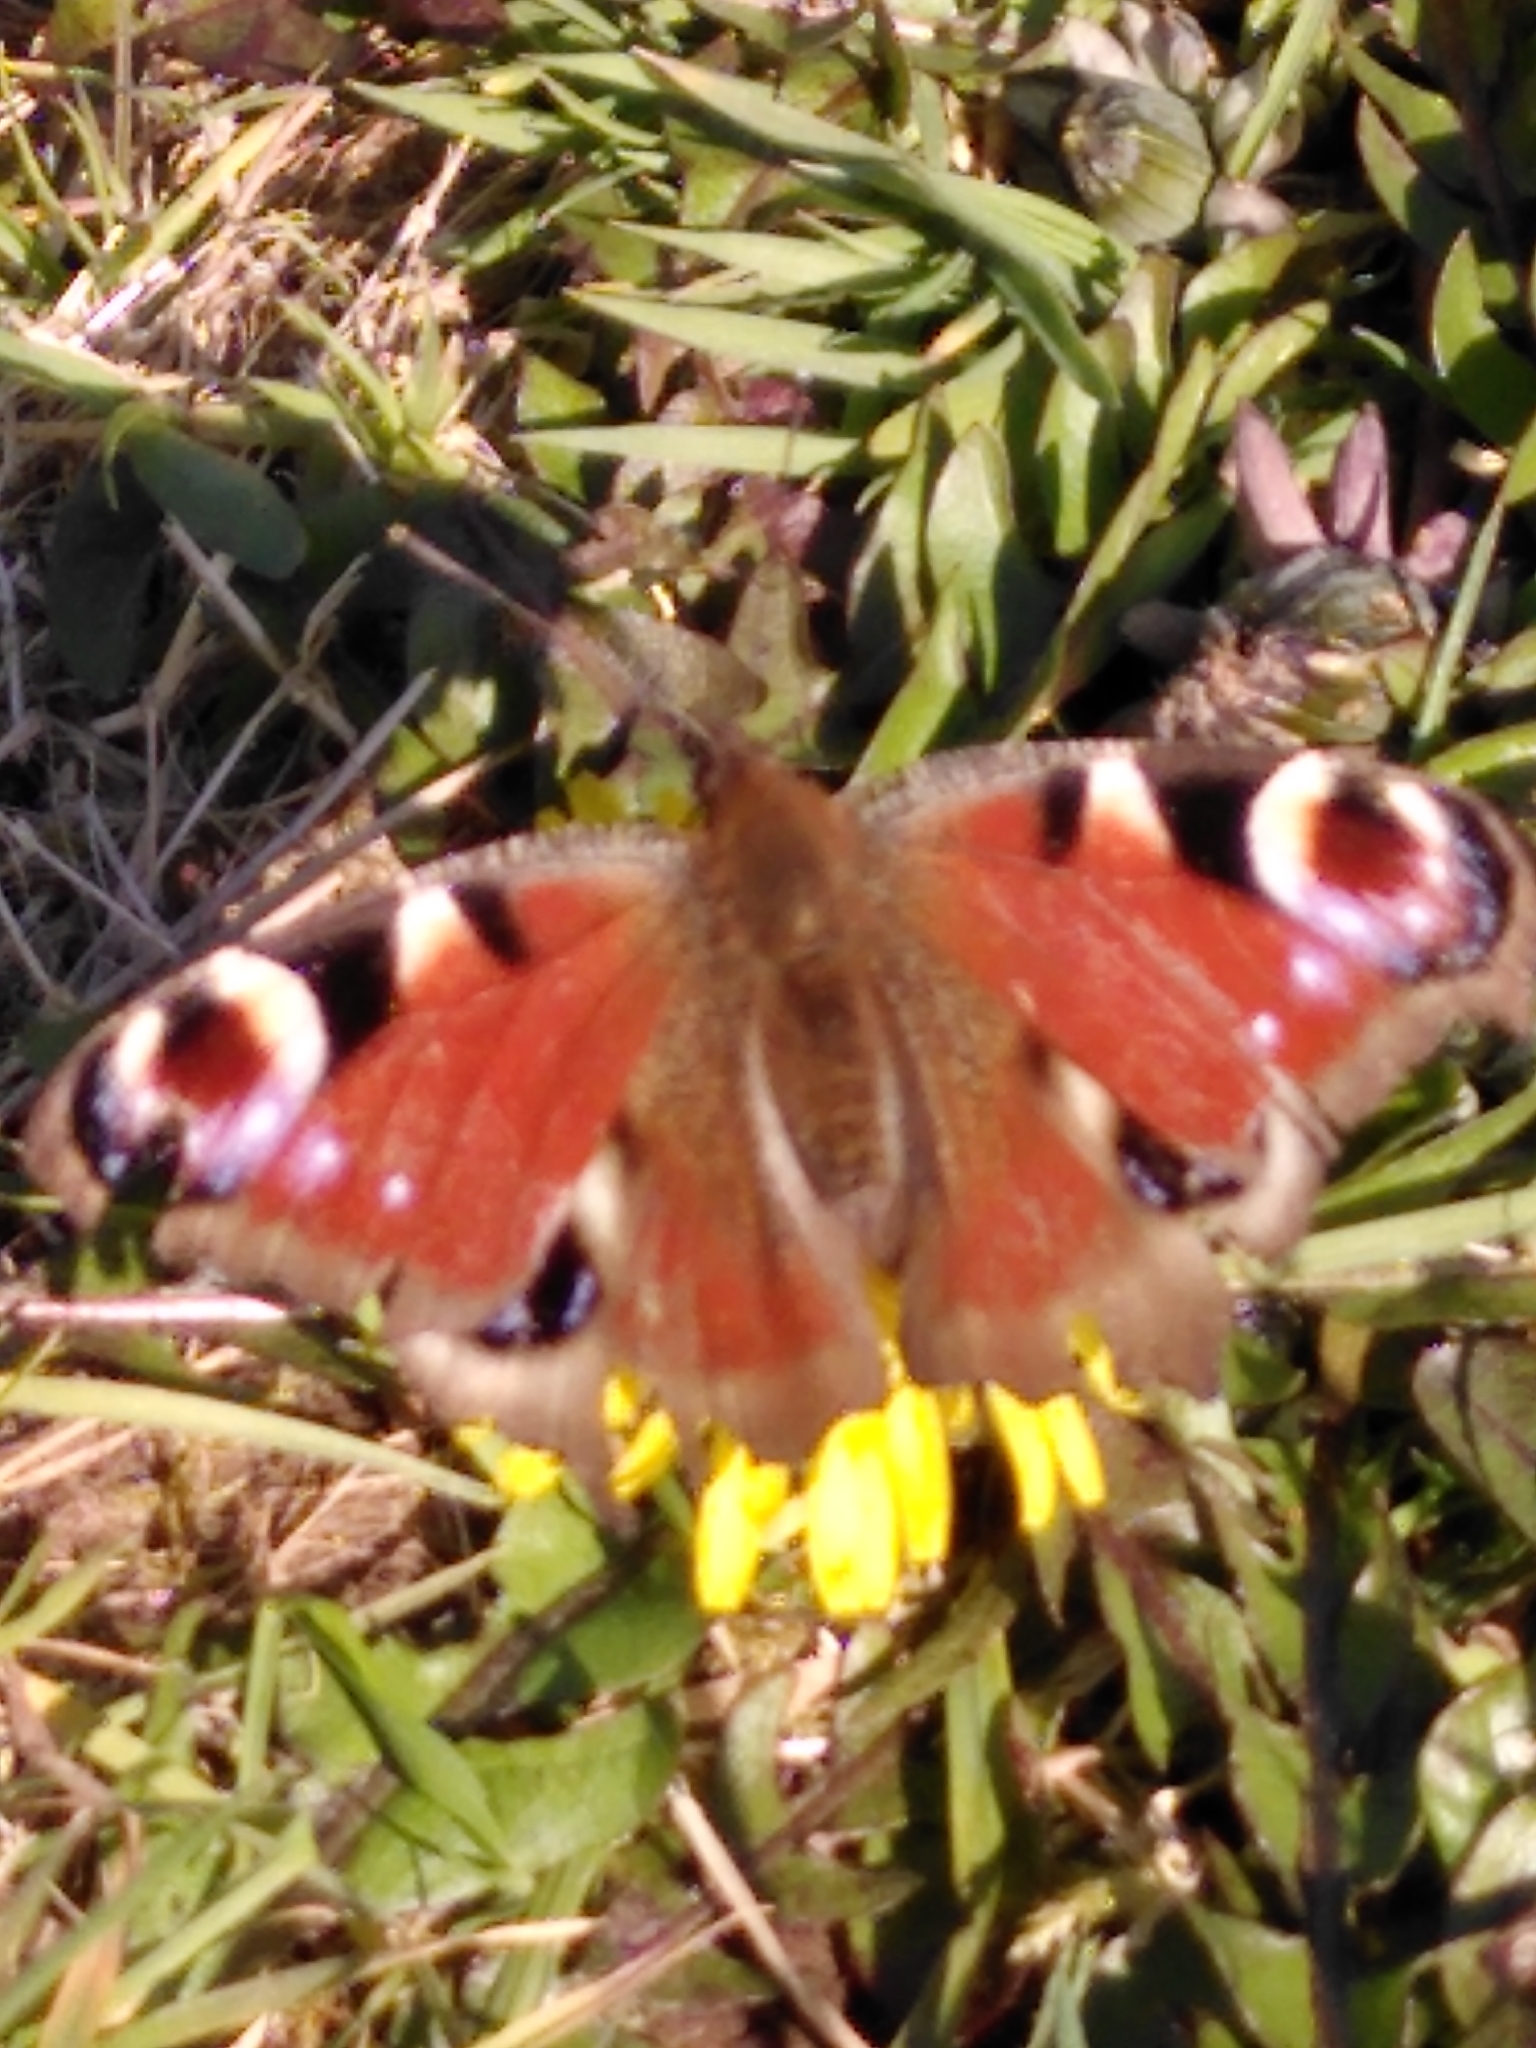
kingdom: Animalia
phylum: Arthropoda
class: Insecta
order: Lepidoptera
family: Nymphalidae
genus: Aglais
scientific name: Aglais io
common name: Peacock
